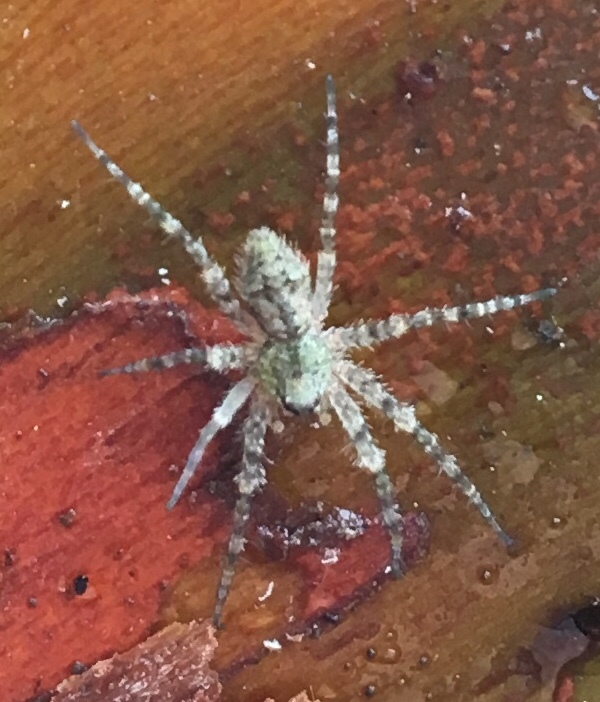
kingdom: Animalia
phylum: Arthropoda
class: Arachnida
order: Araneae
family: Pisauridae
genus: Dolomedes
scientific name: Dolomedes albineus
